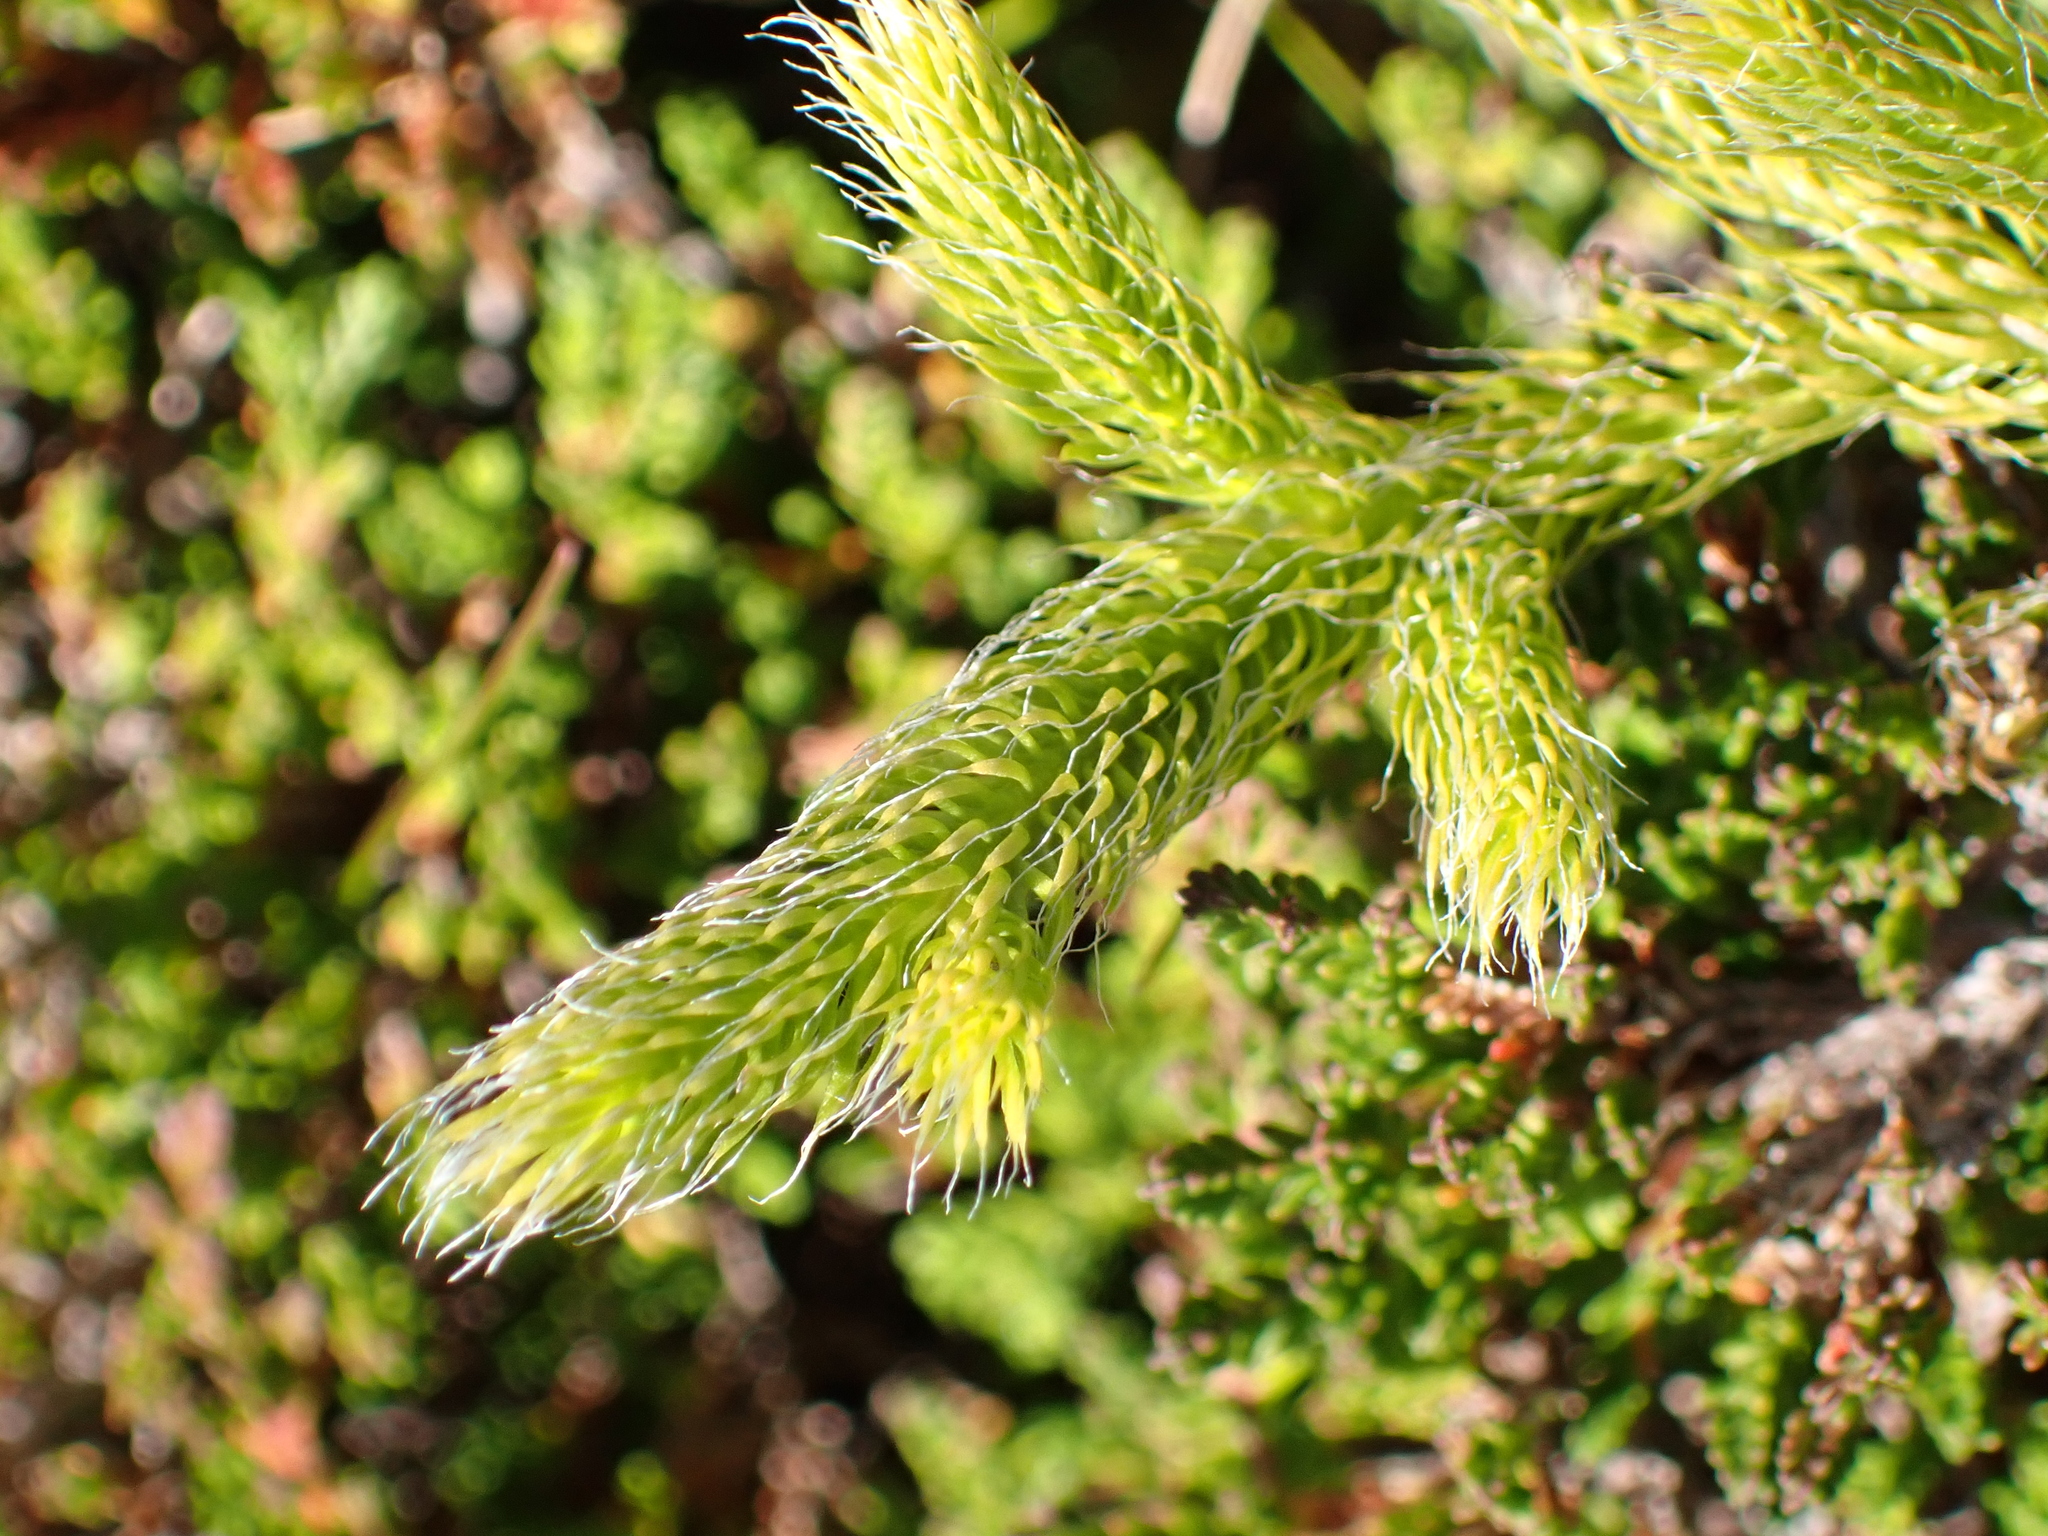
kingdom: Plantae
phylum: Tracheophyta
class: Lycopodiopsida
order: Lycopodiales
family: Lycopodiaceae
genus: Lycopodium
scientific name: Lycopodium clavatum
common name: Stag's-horn clubmoss
